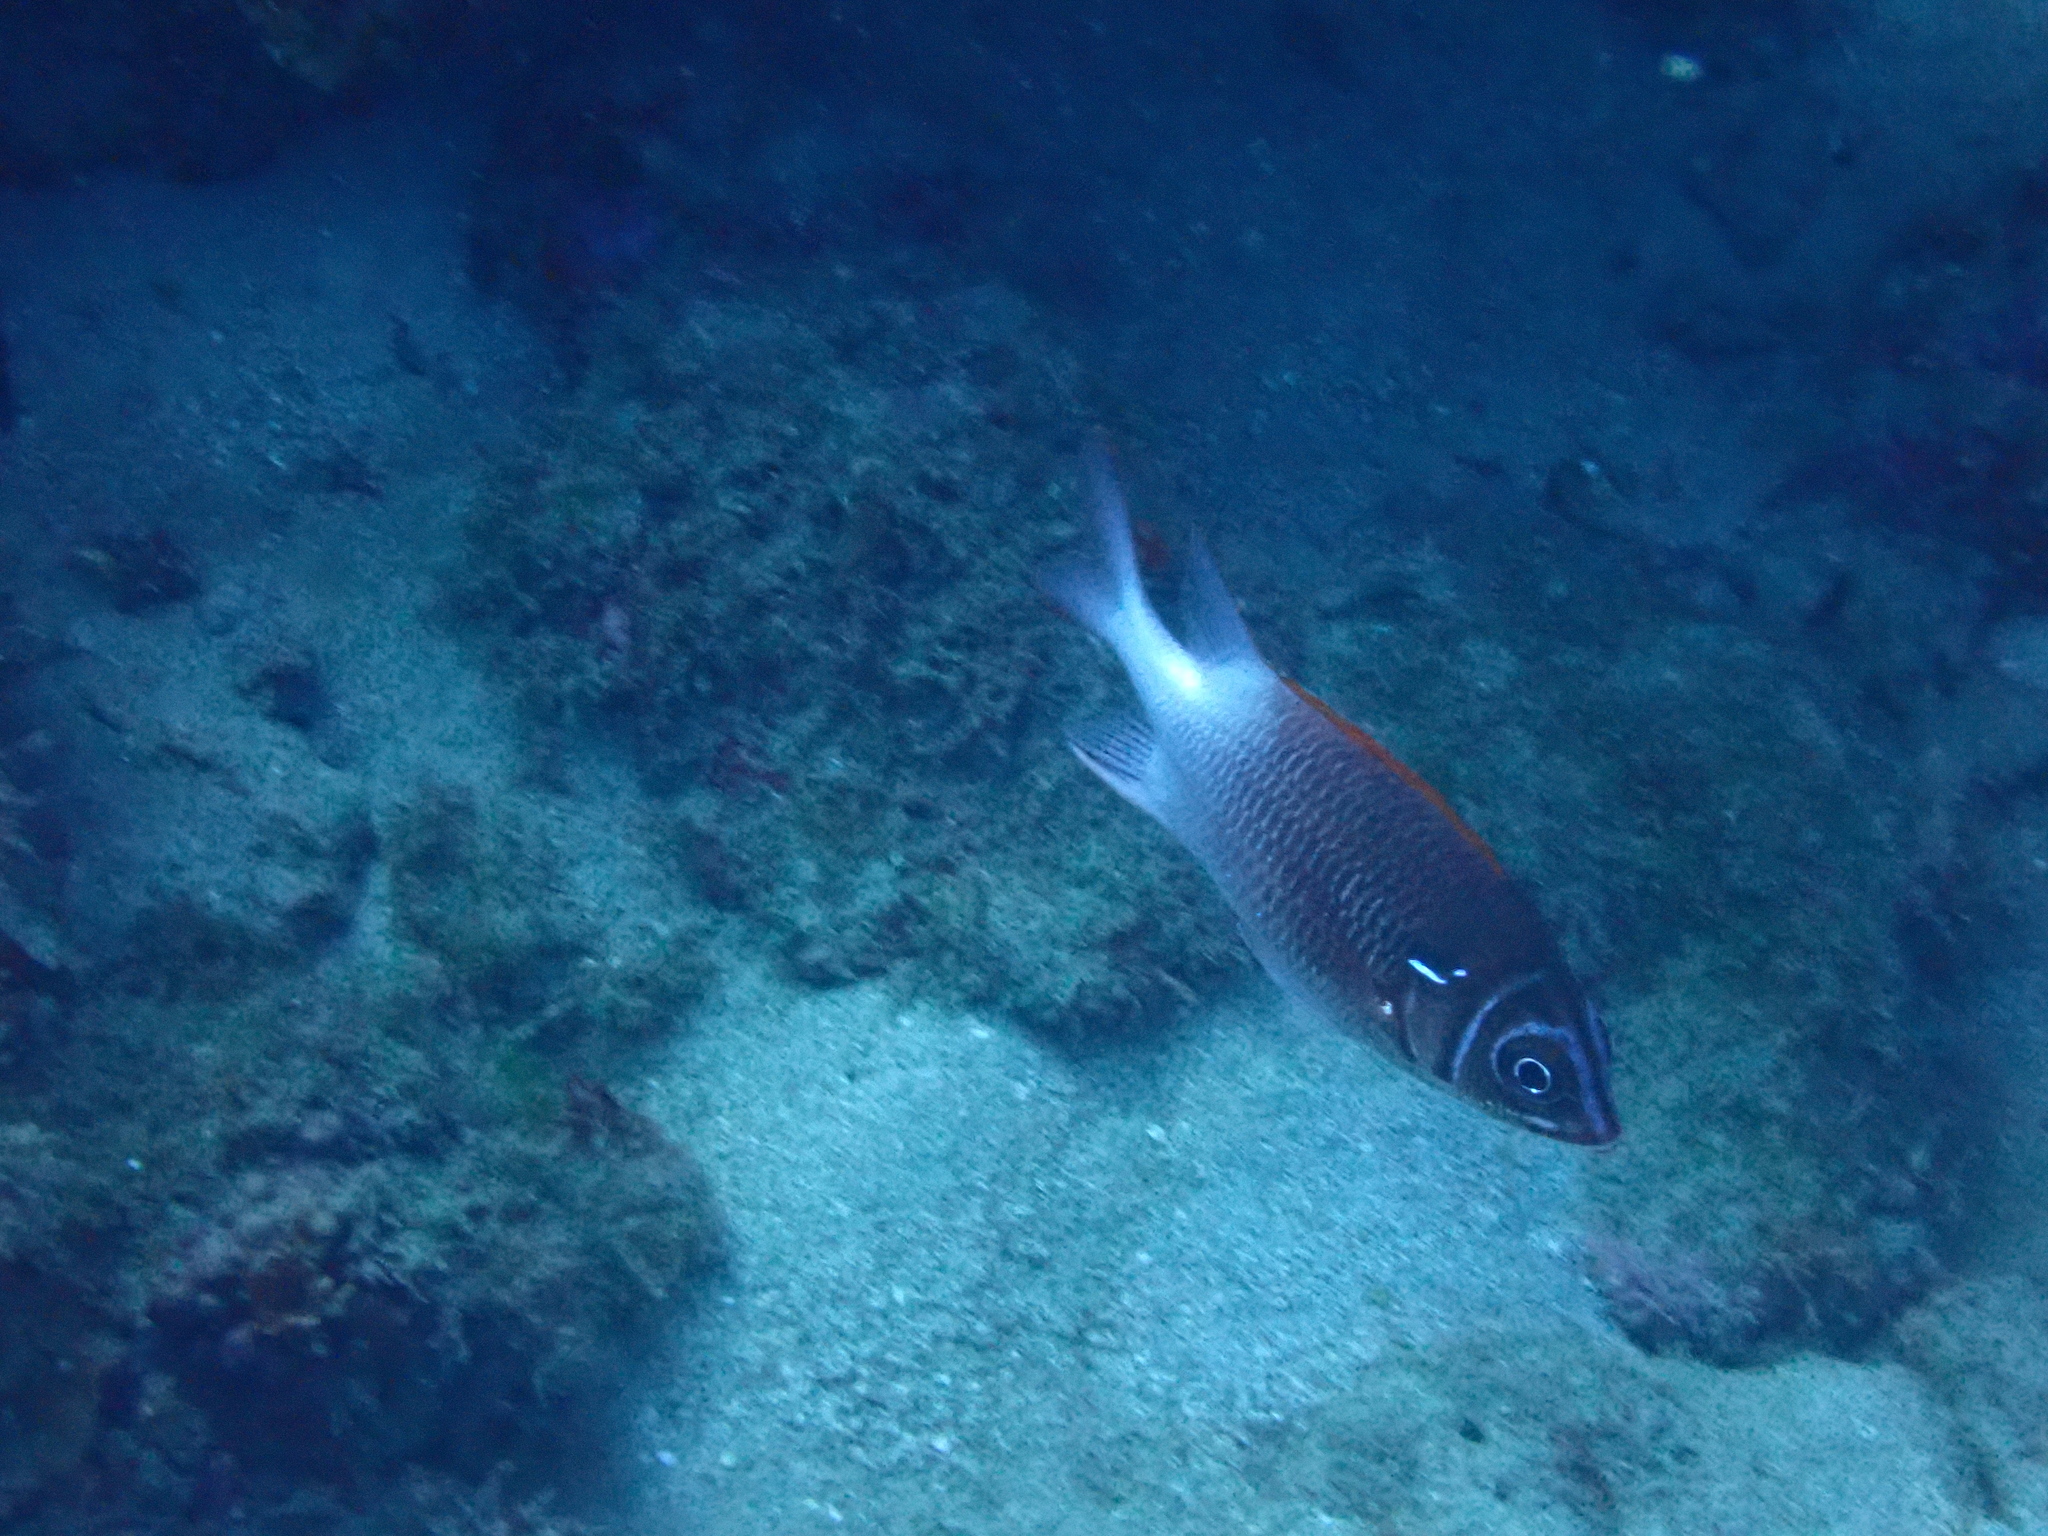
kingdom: Animalia
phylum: Chordata
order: Beryciformes
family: Holocentridae
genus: Sargocentron
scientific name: Sargocentron caudimaculatum
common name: Fanfin soldier
